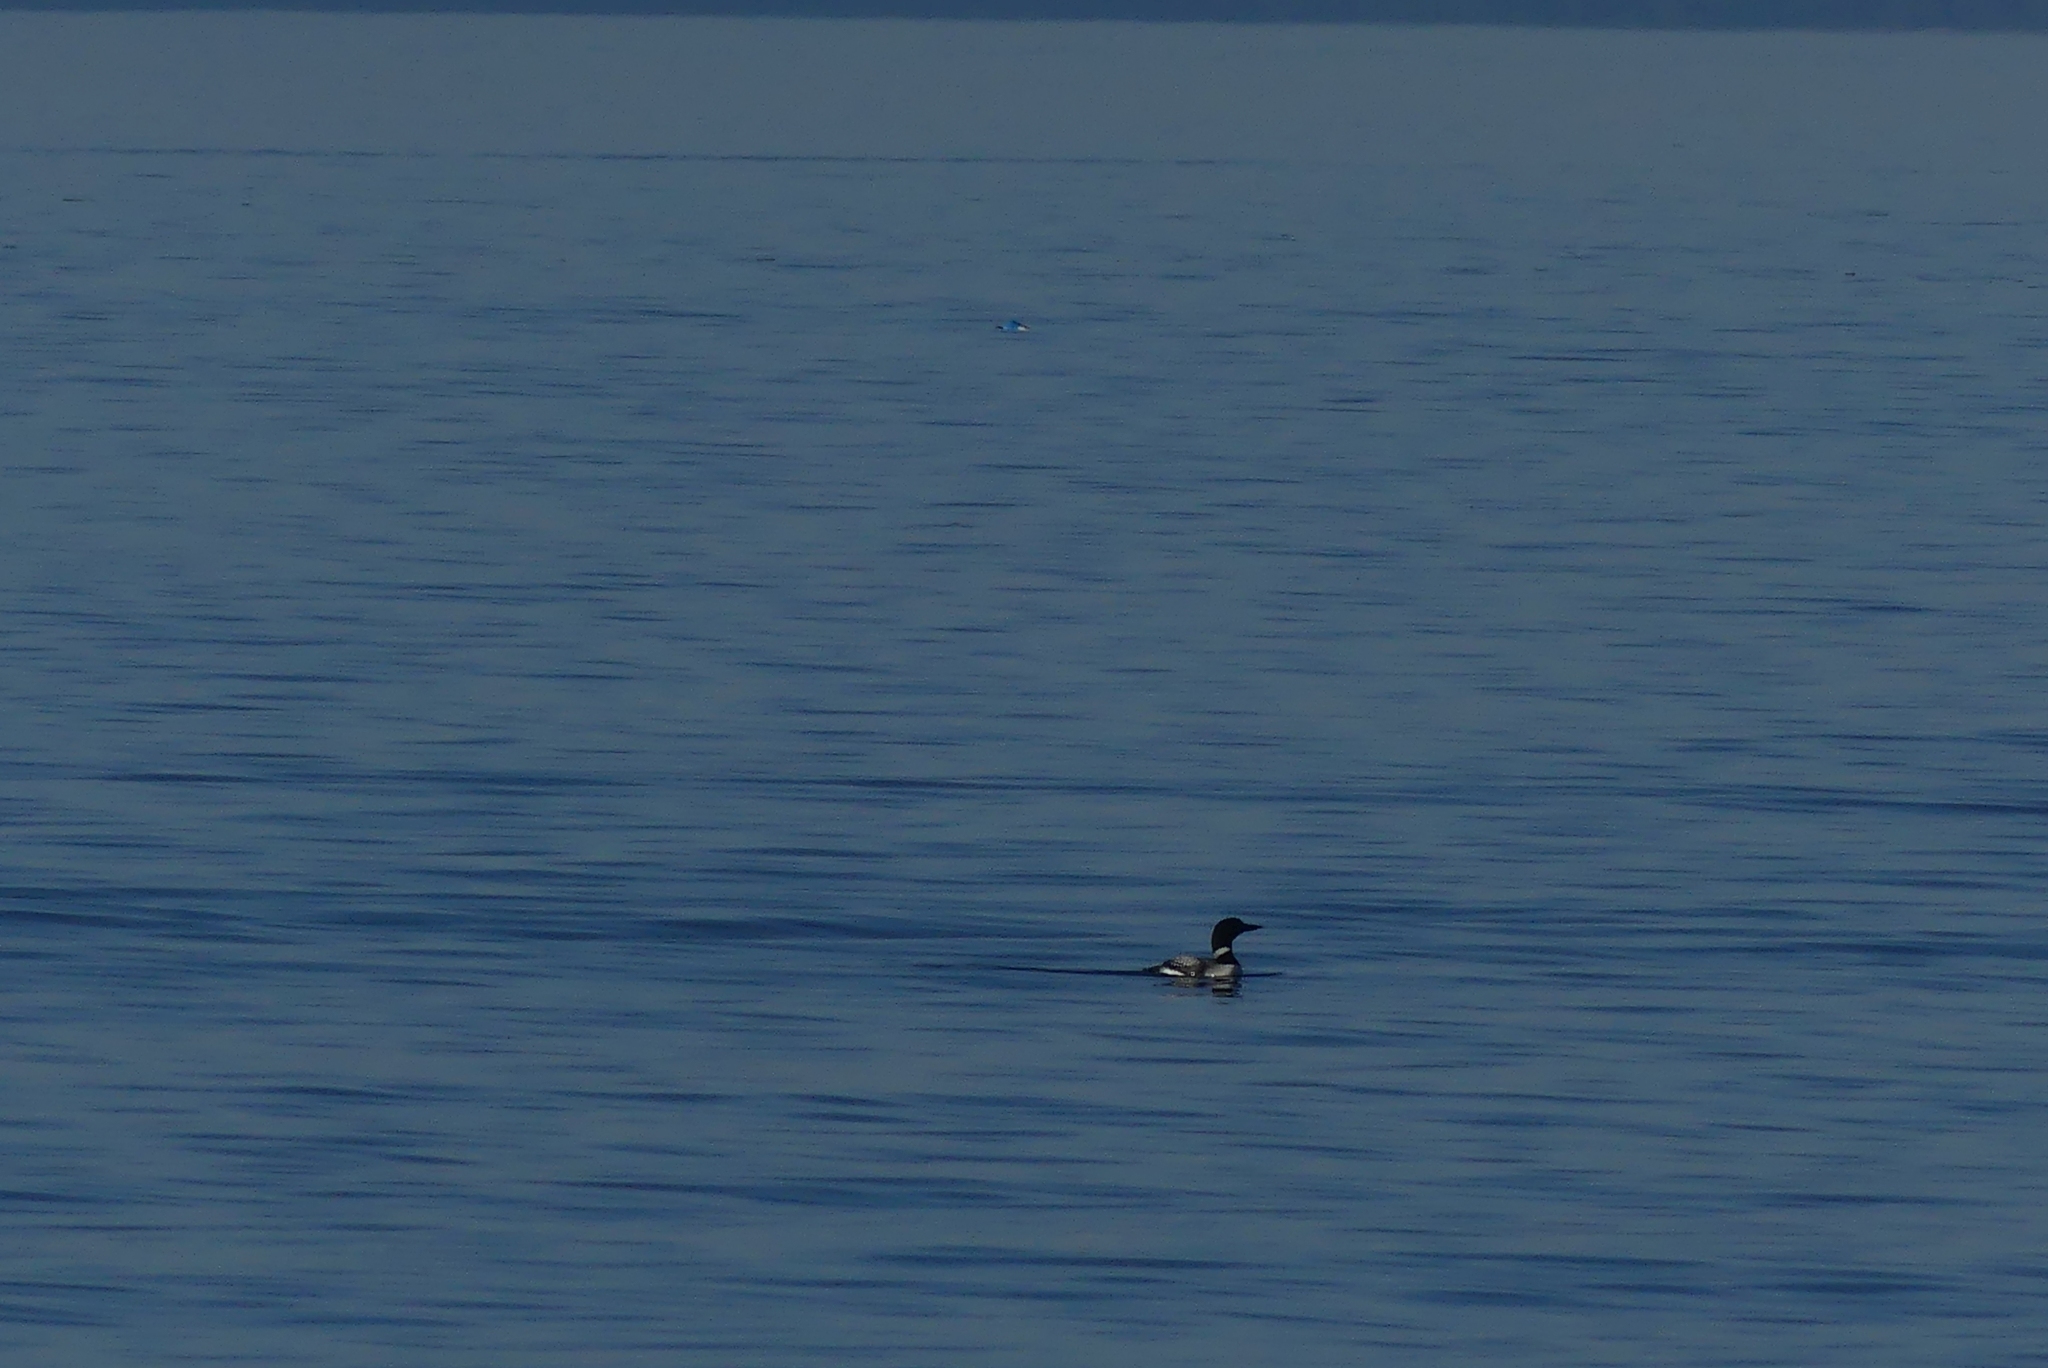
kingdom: Animalia
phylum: Chordata
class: Aves
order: Gaviiformes
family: Gaviidae
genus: Gavia
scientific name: Gavia immer
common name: Common loon
